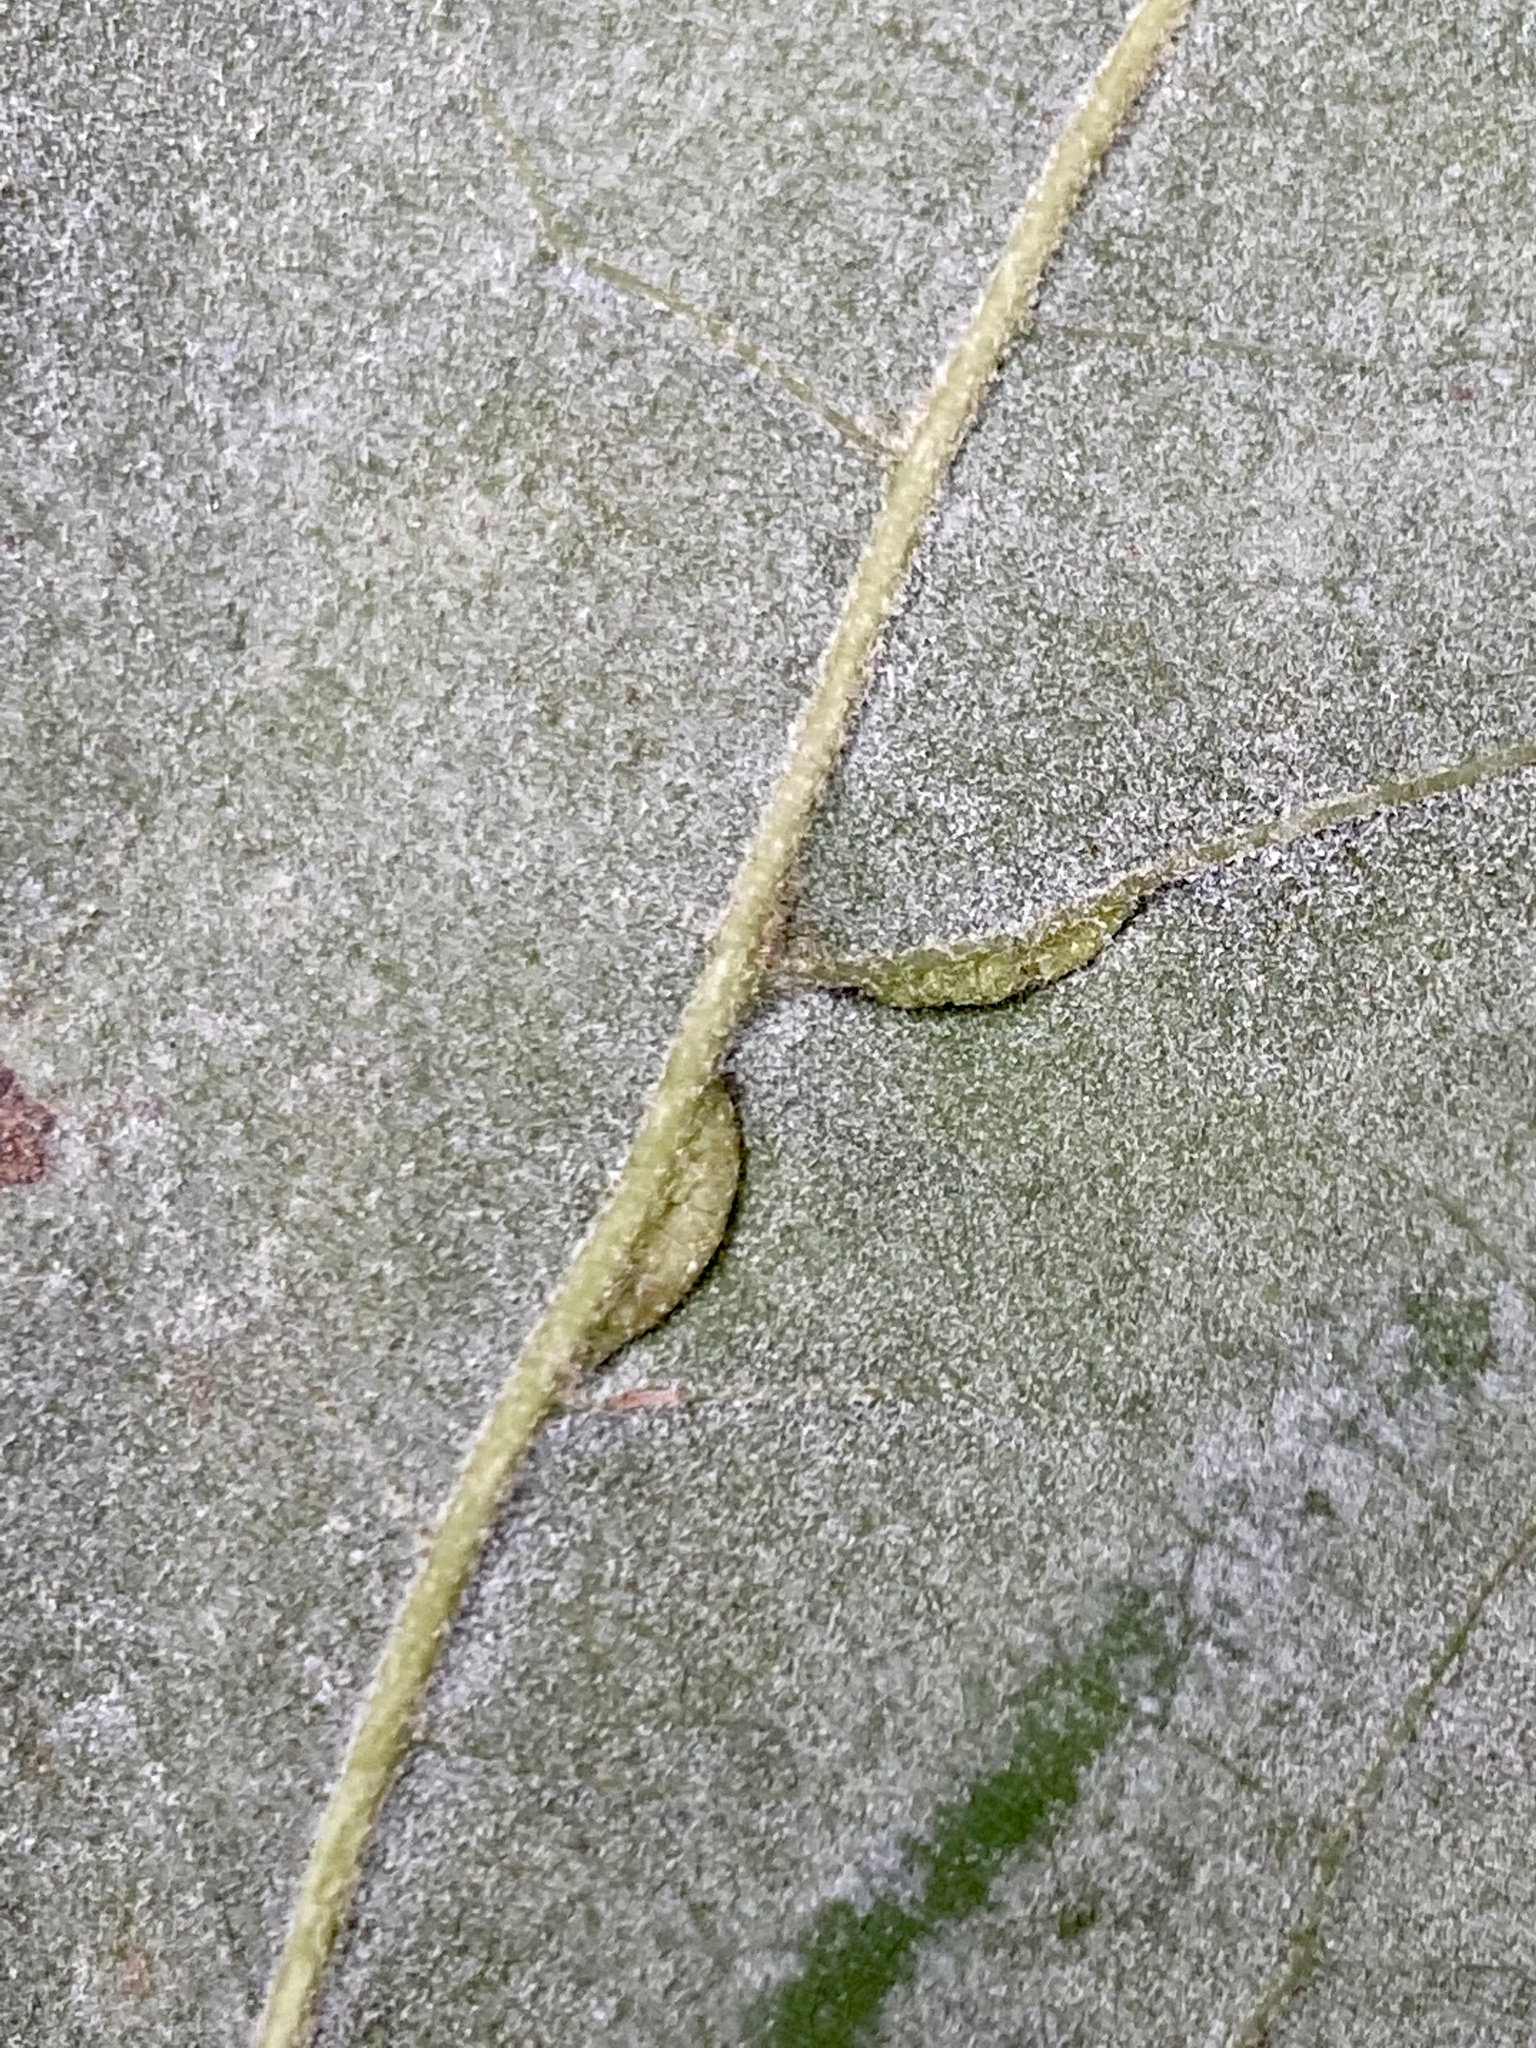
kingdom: Animalia
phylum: Arthropoda
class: Insecta
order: Diptera
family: Cecidomyiidae
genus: Macrodiplosis
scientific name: Macrodiplosis q-orucum
